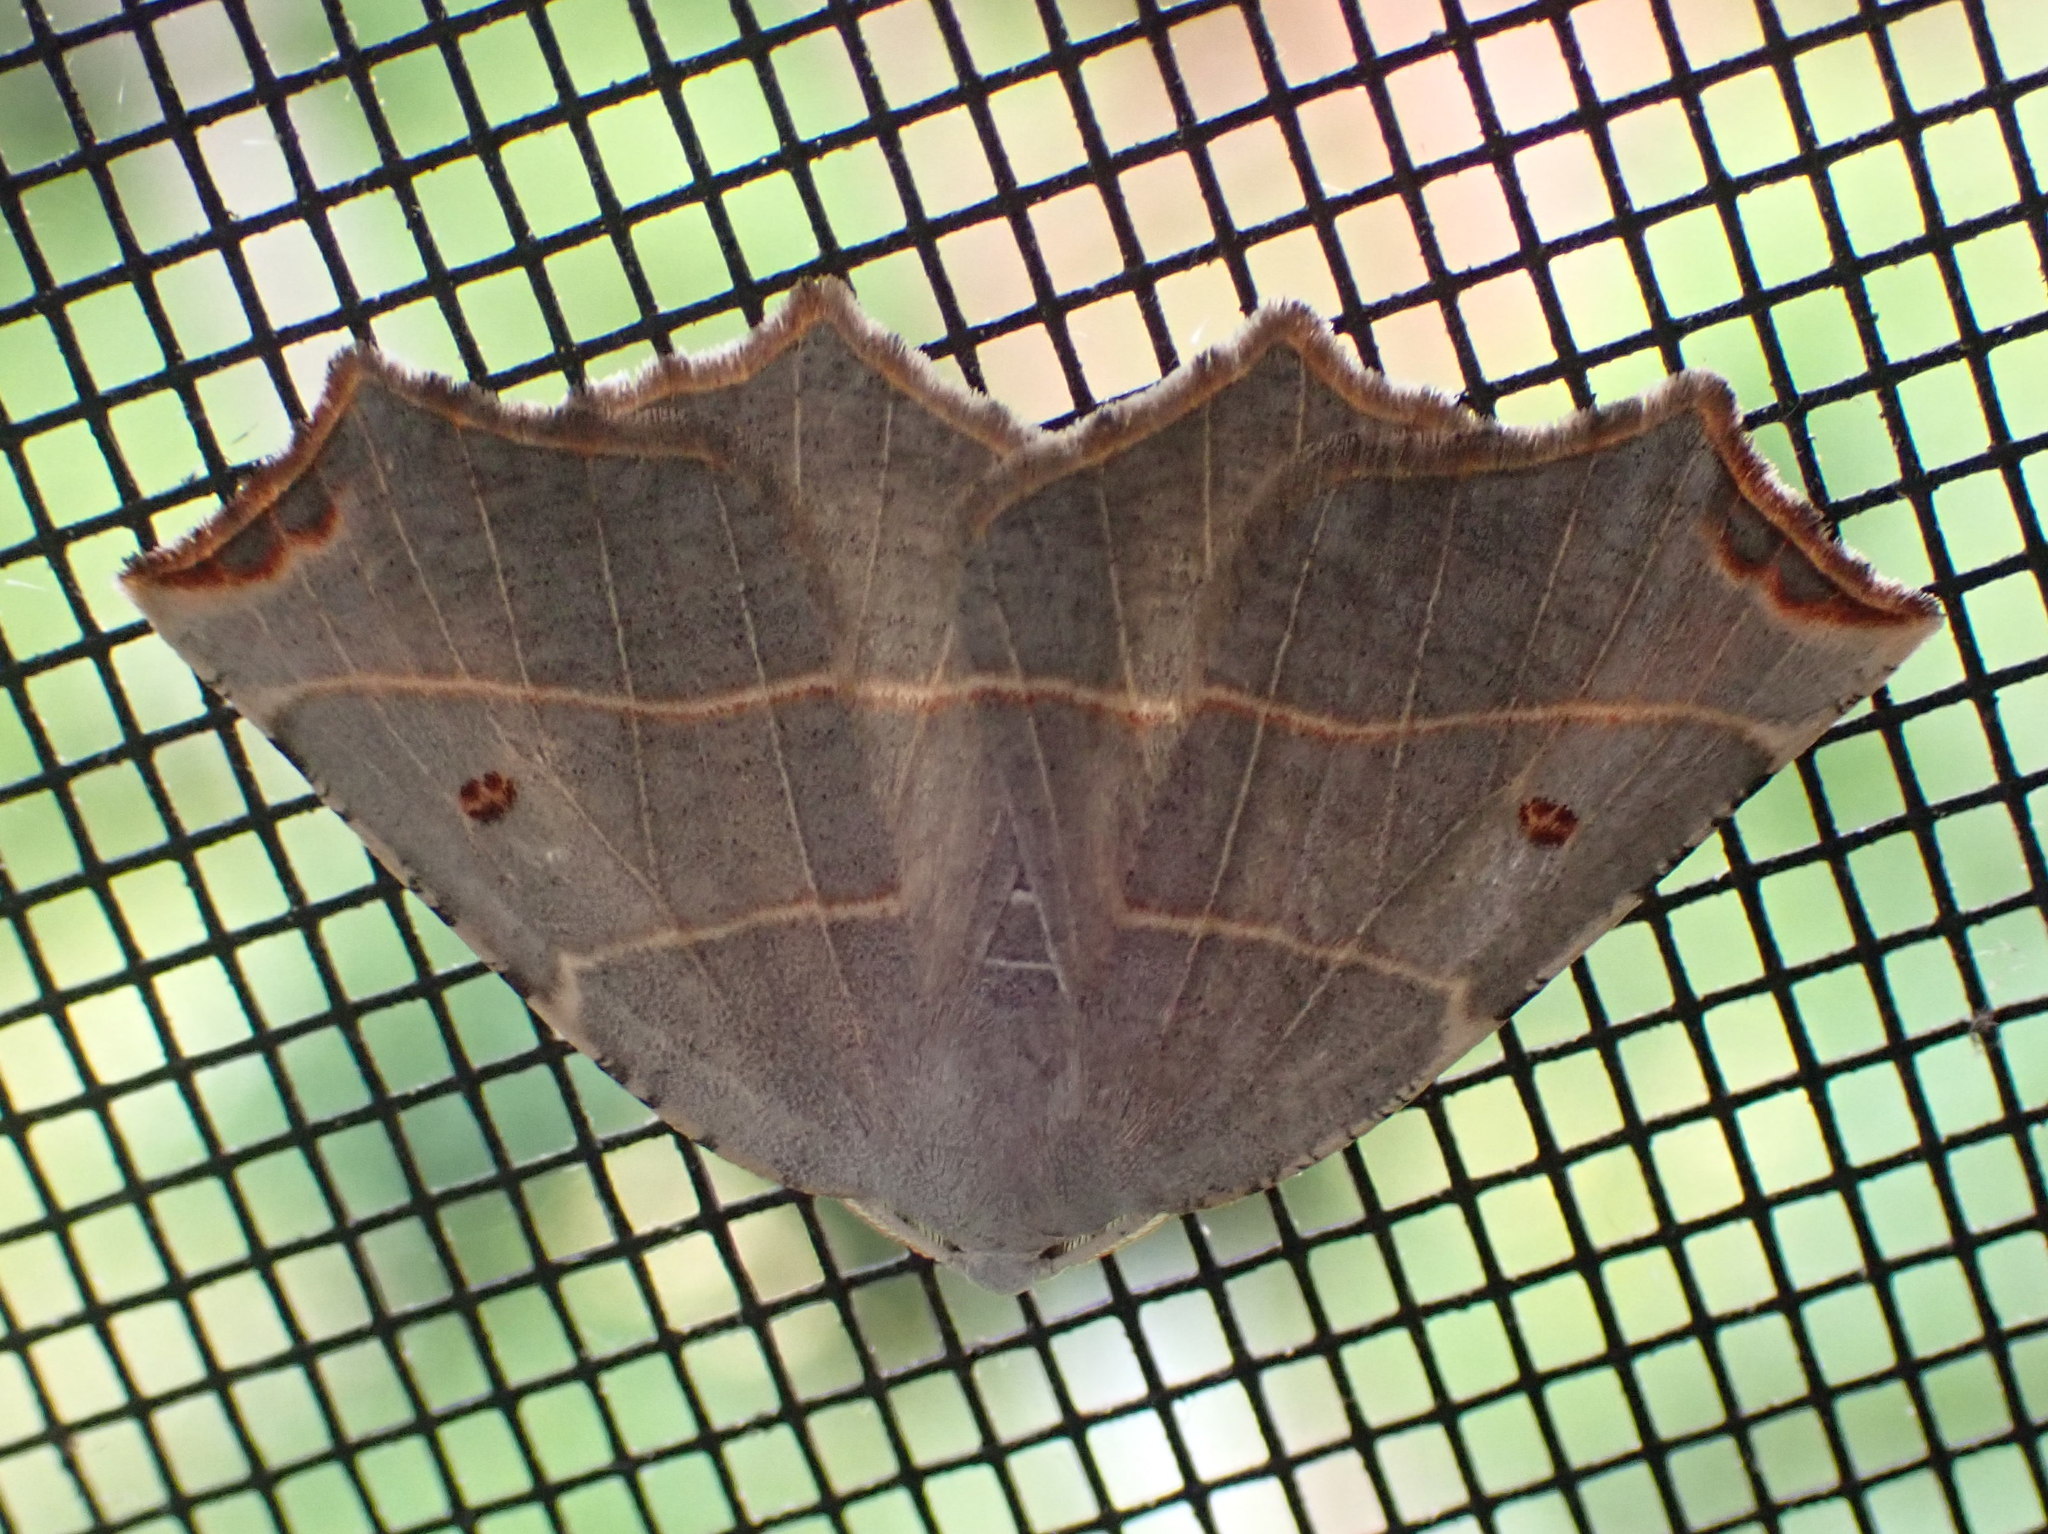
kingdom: Animalia
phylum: Arthropoda
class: Insecta
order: Lepidoptera
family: Geometridae
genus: Metanema
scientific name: Metanema inatomaria
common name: Pale metanema
